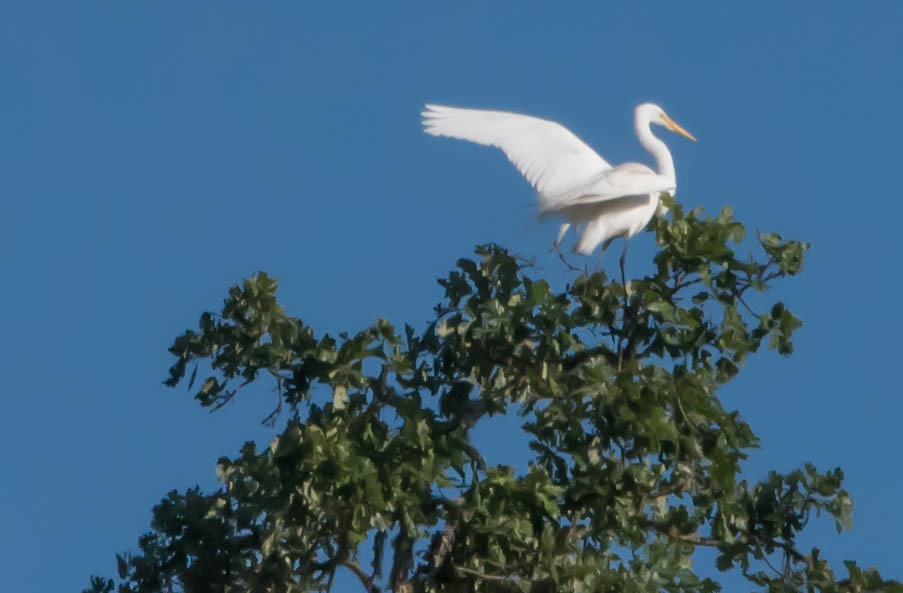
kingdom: Animalia
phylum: Chordata
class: Aves
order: Pelecaniformes
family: Ardeidae
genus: Ardea
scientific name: Ardea alba
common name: Great egret
